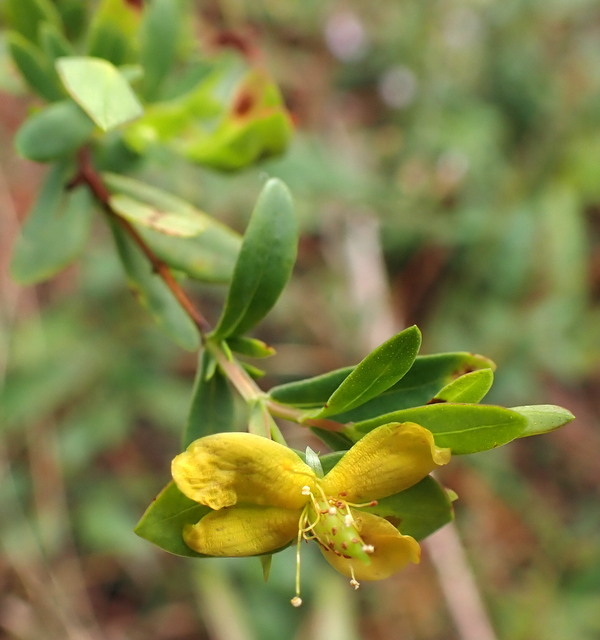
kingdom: Plantae
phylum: Tracheophyta
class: Magnoliopsida
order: Malpighiales
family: Hypericaceae
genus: Hypericum
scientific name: Hypericum hypericoides
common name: St. andrew's cross
